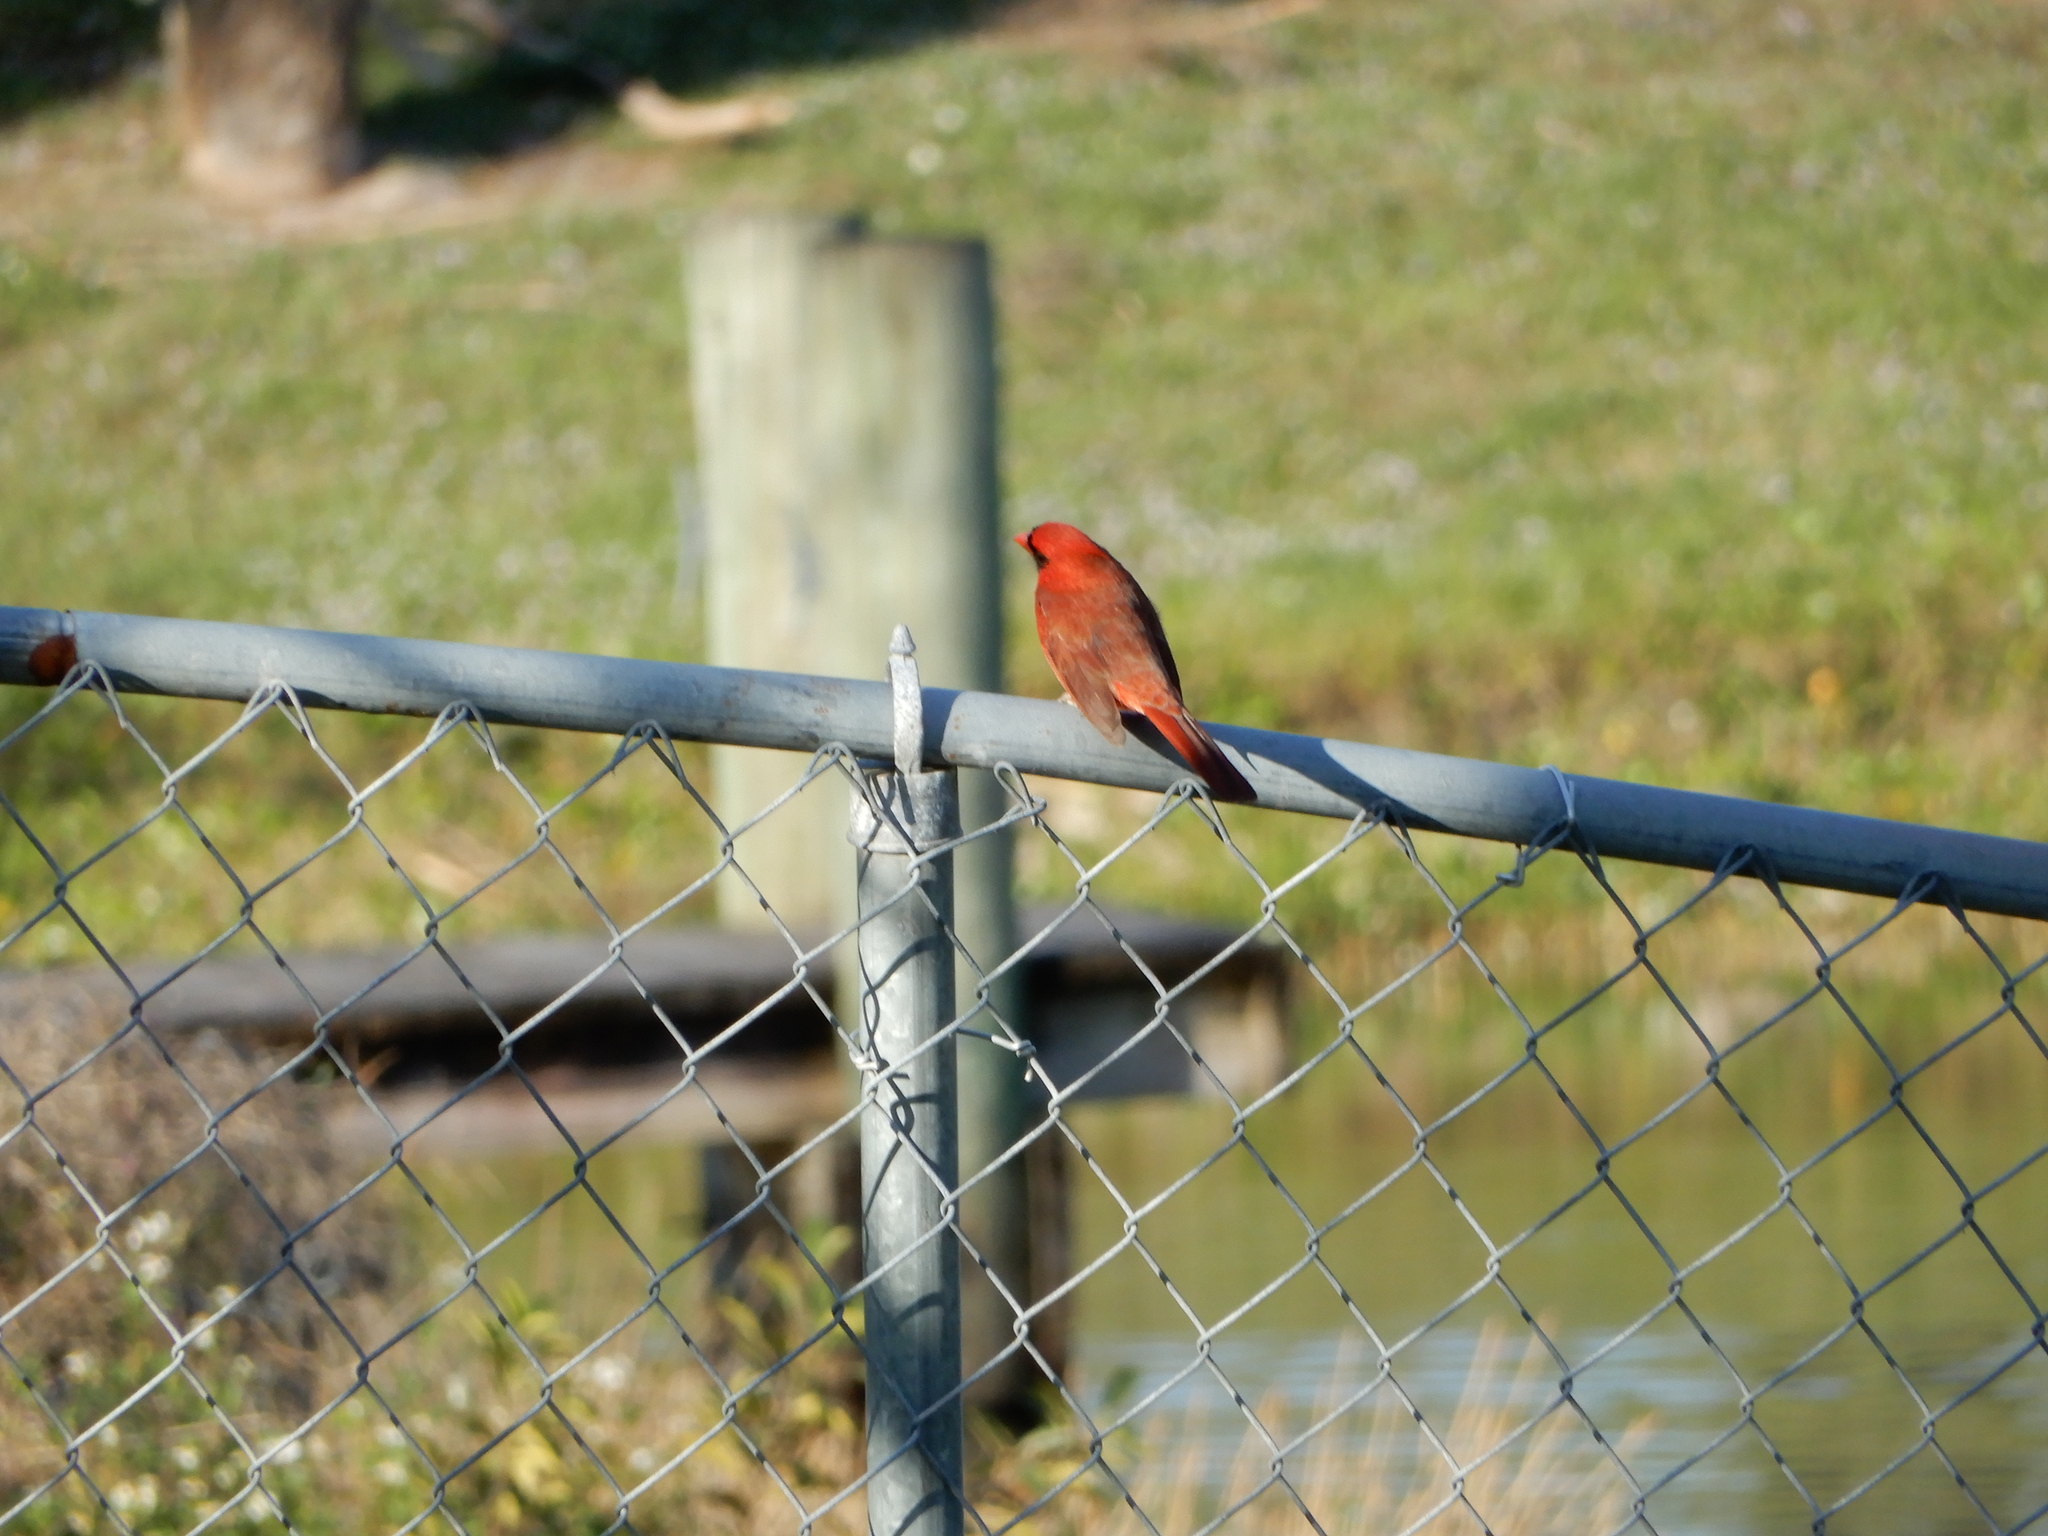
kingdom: Animalia
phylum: Chordata
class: Aves
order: Passeriformes
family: Cardinalidae
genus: Cardinalis
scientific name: Cardinalis cardinalis
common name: Northern cardinal
